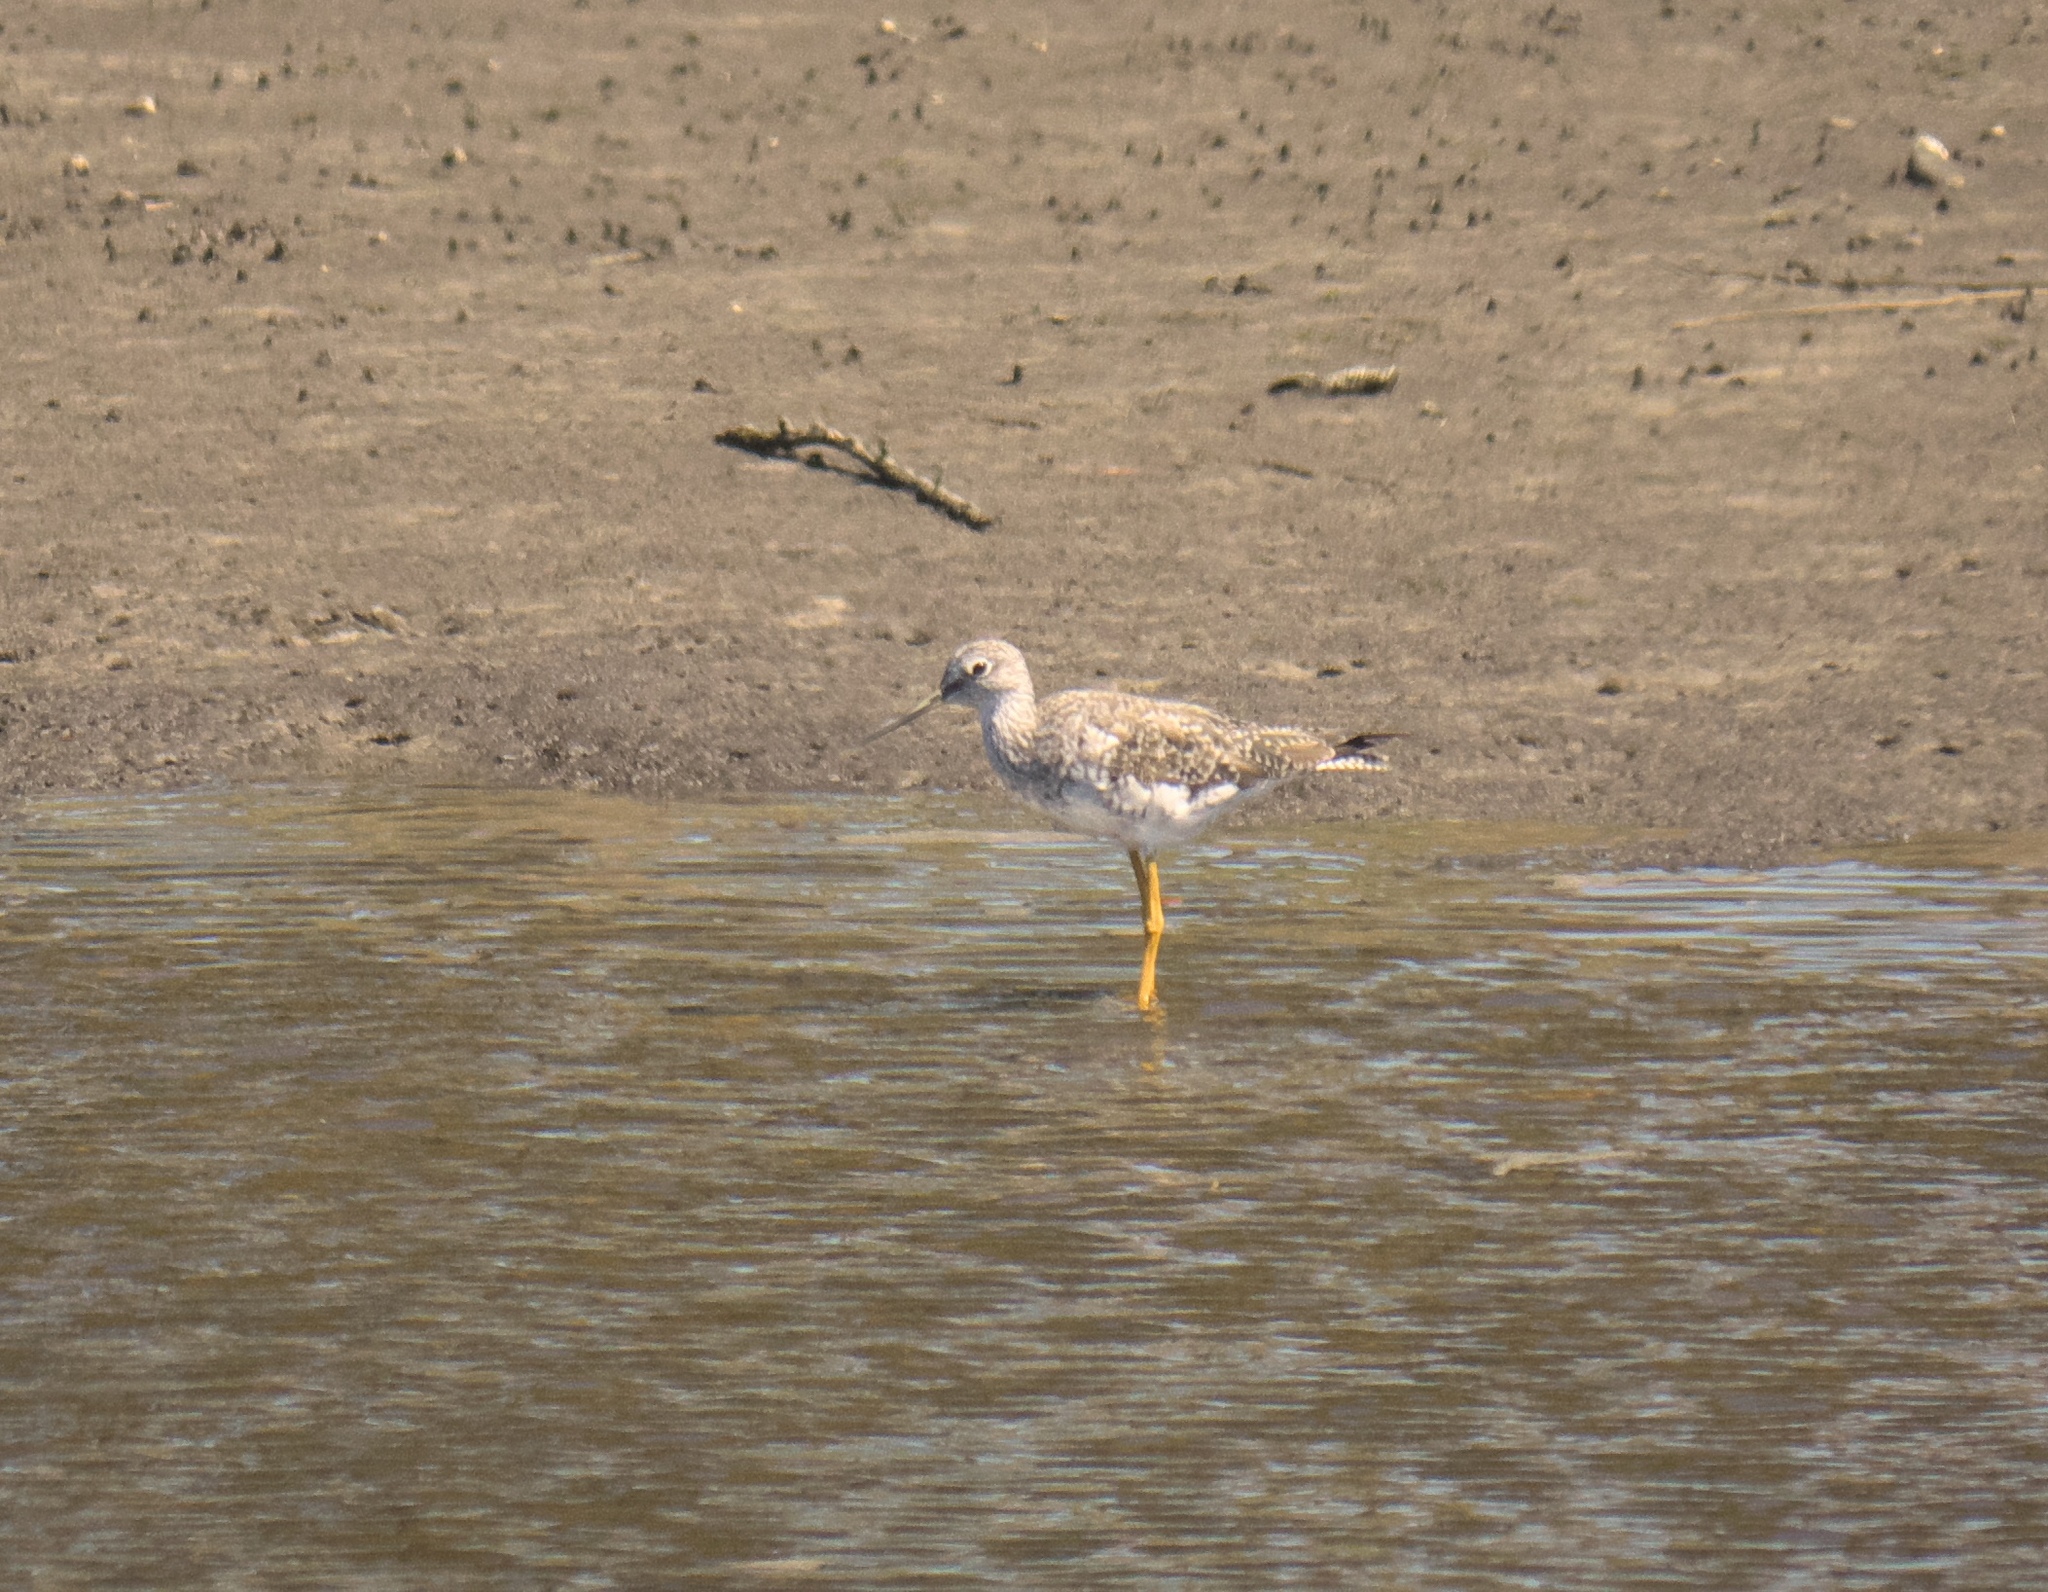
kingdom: Animalia
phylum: Chordata
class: Aves
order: Charadriiformes
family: Scolopacidae
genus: Tringa
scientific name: Tringa flavipes
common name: Lesser yellowlegs
